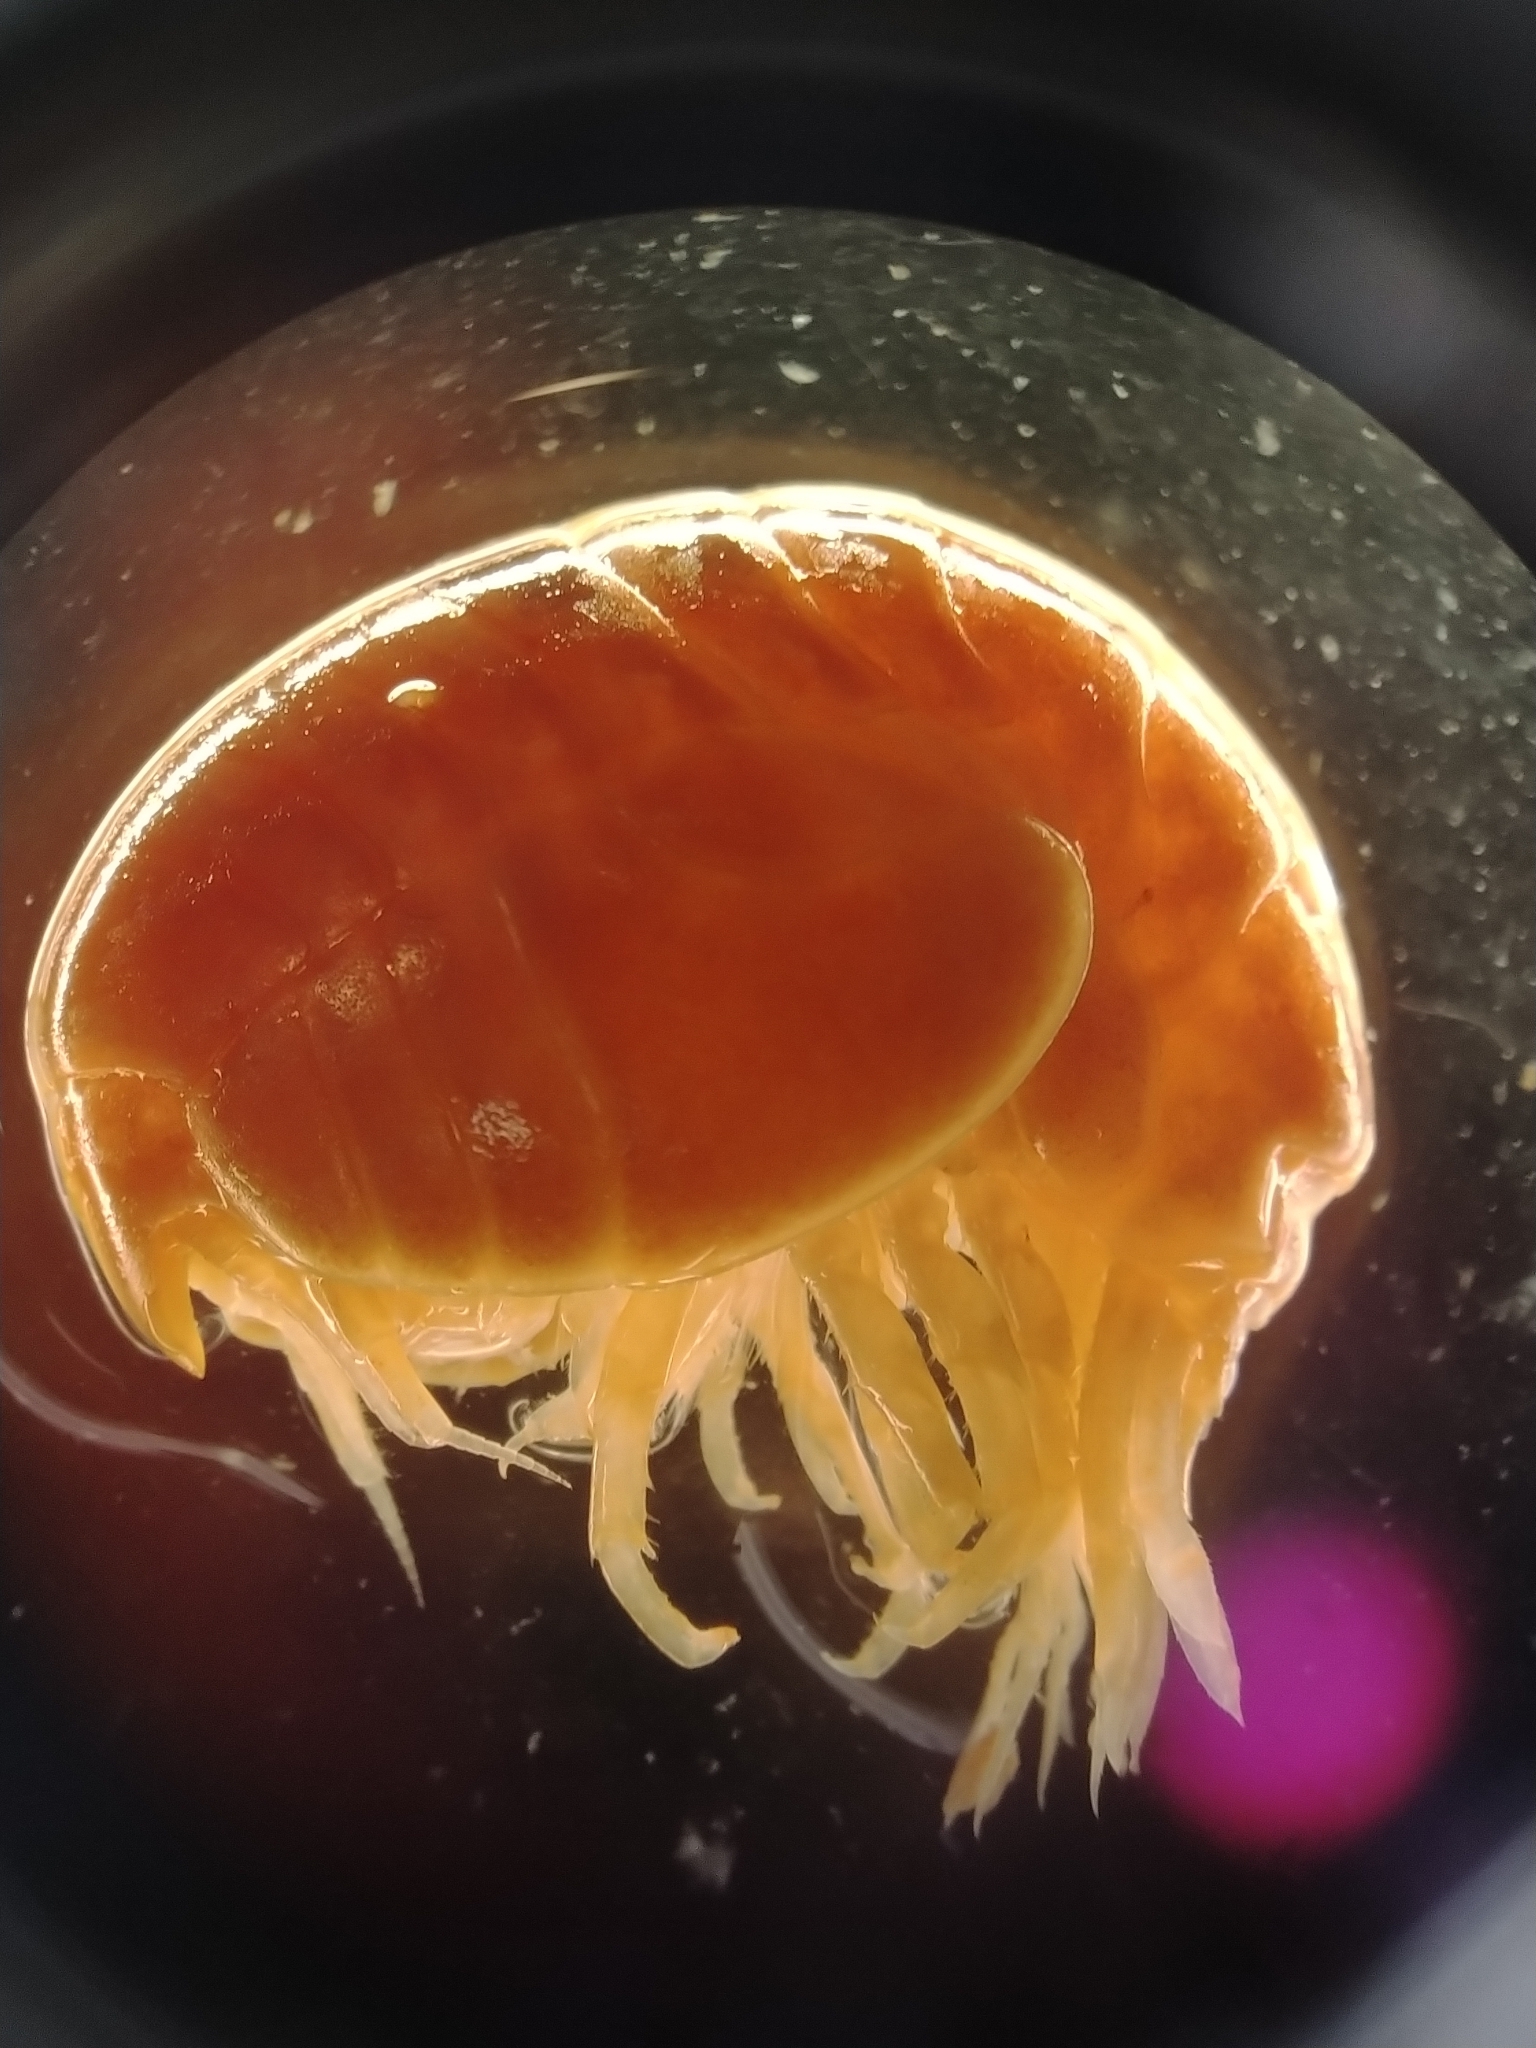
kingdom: Animalia
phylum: Arthropoda
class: Malacostraca
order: Amphipoda
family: Stegocephalidae
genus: Stegocephalus
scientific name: Stegocephalus ampulla
